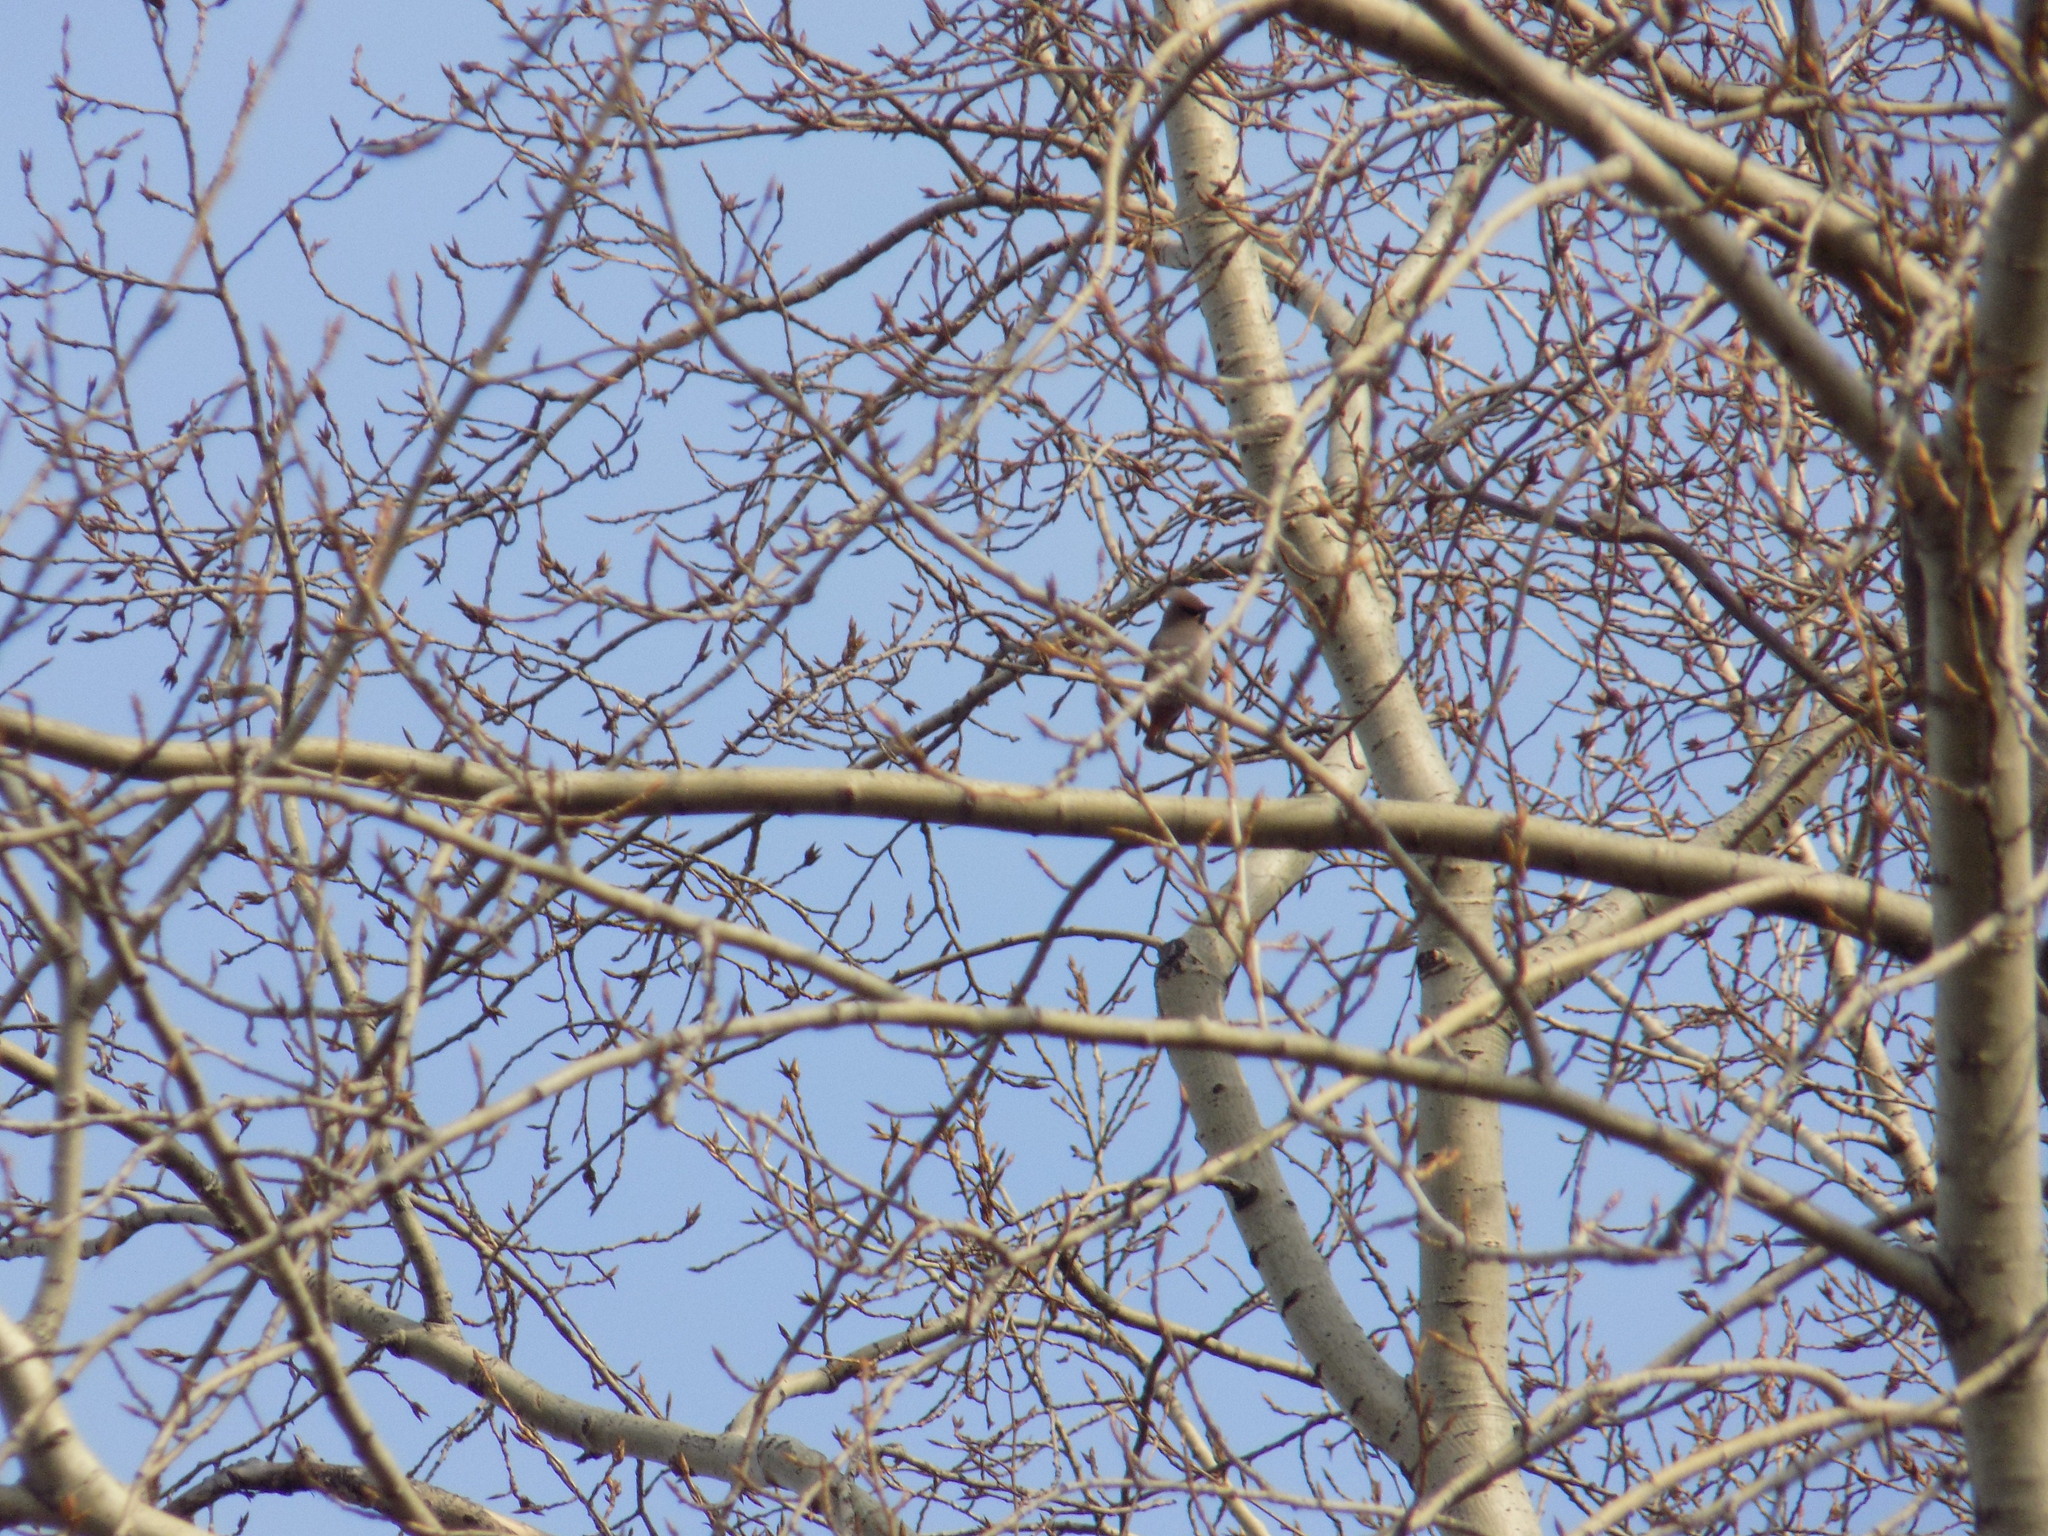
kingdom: Animalia
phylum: Chordata
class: Aves
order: Passeriformes
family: Bombycillidae
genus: Bombycilla
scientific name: Bombycilla garrulus
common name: Bohemian waxwing
